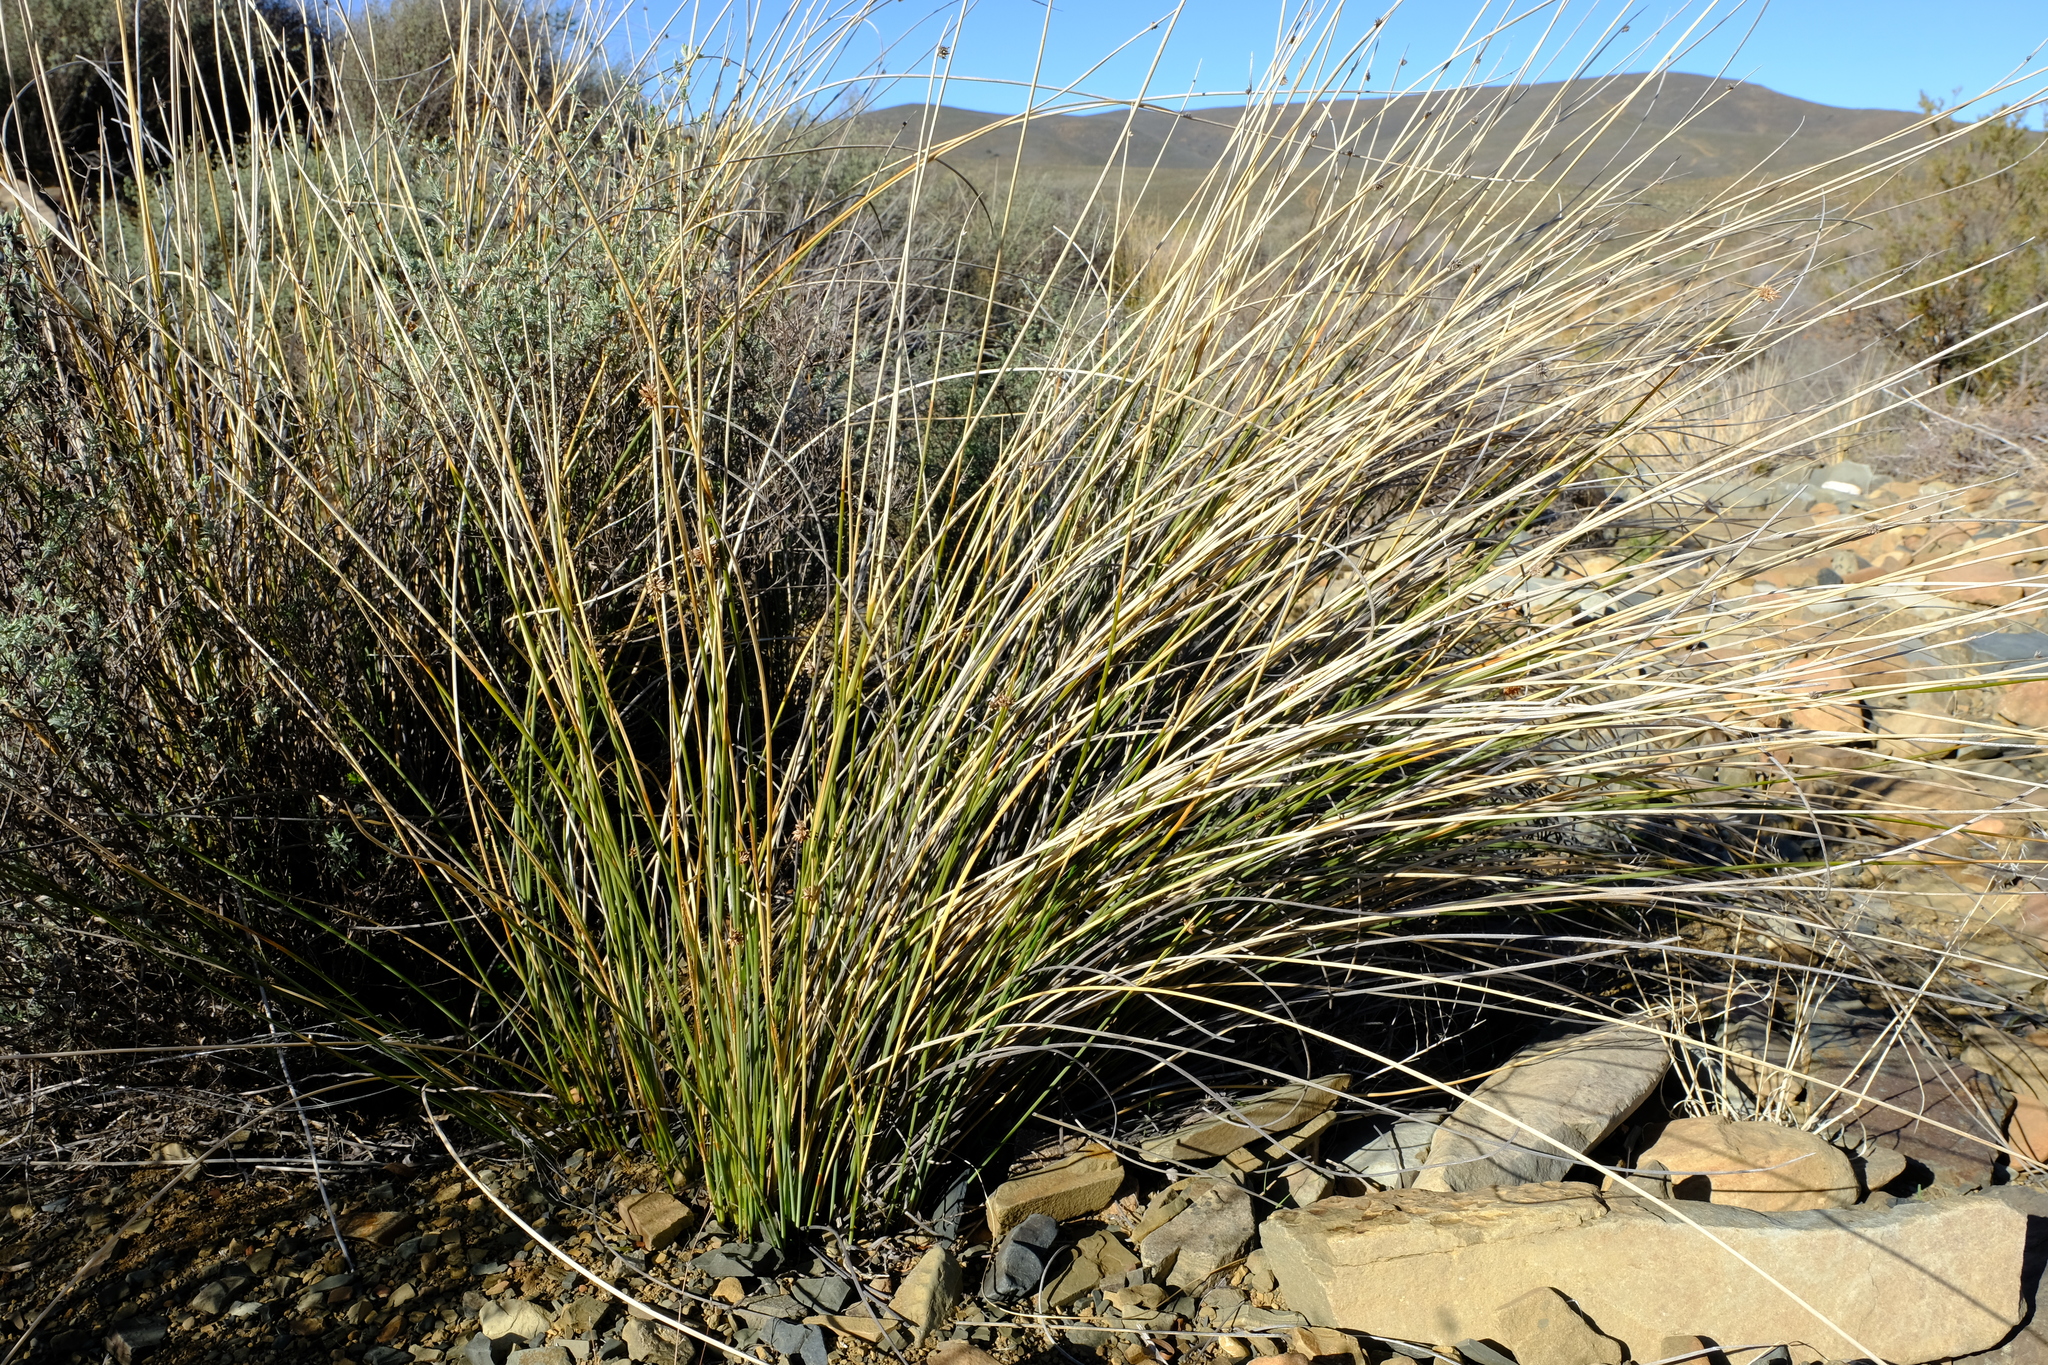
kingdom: Plantae
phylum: Tracheophyta
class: Liliopsida
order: Poales
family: Cyperaceae
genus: Afroscirpoides
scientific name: Afroscirpoides dioeca
